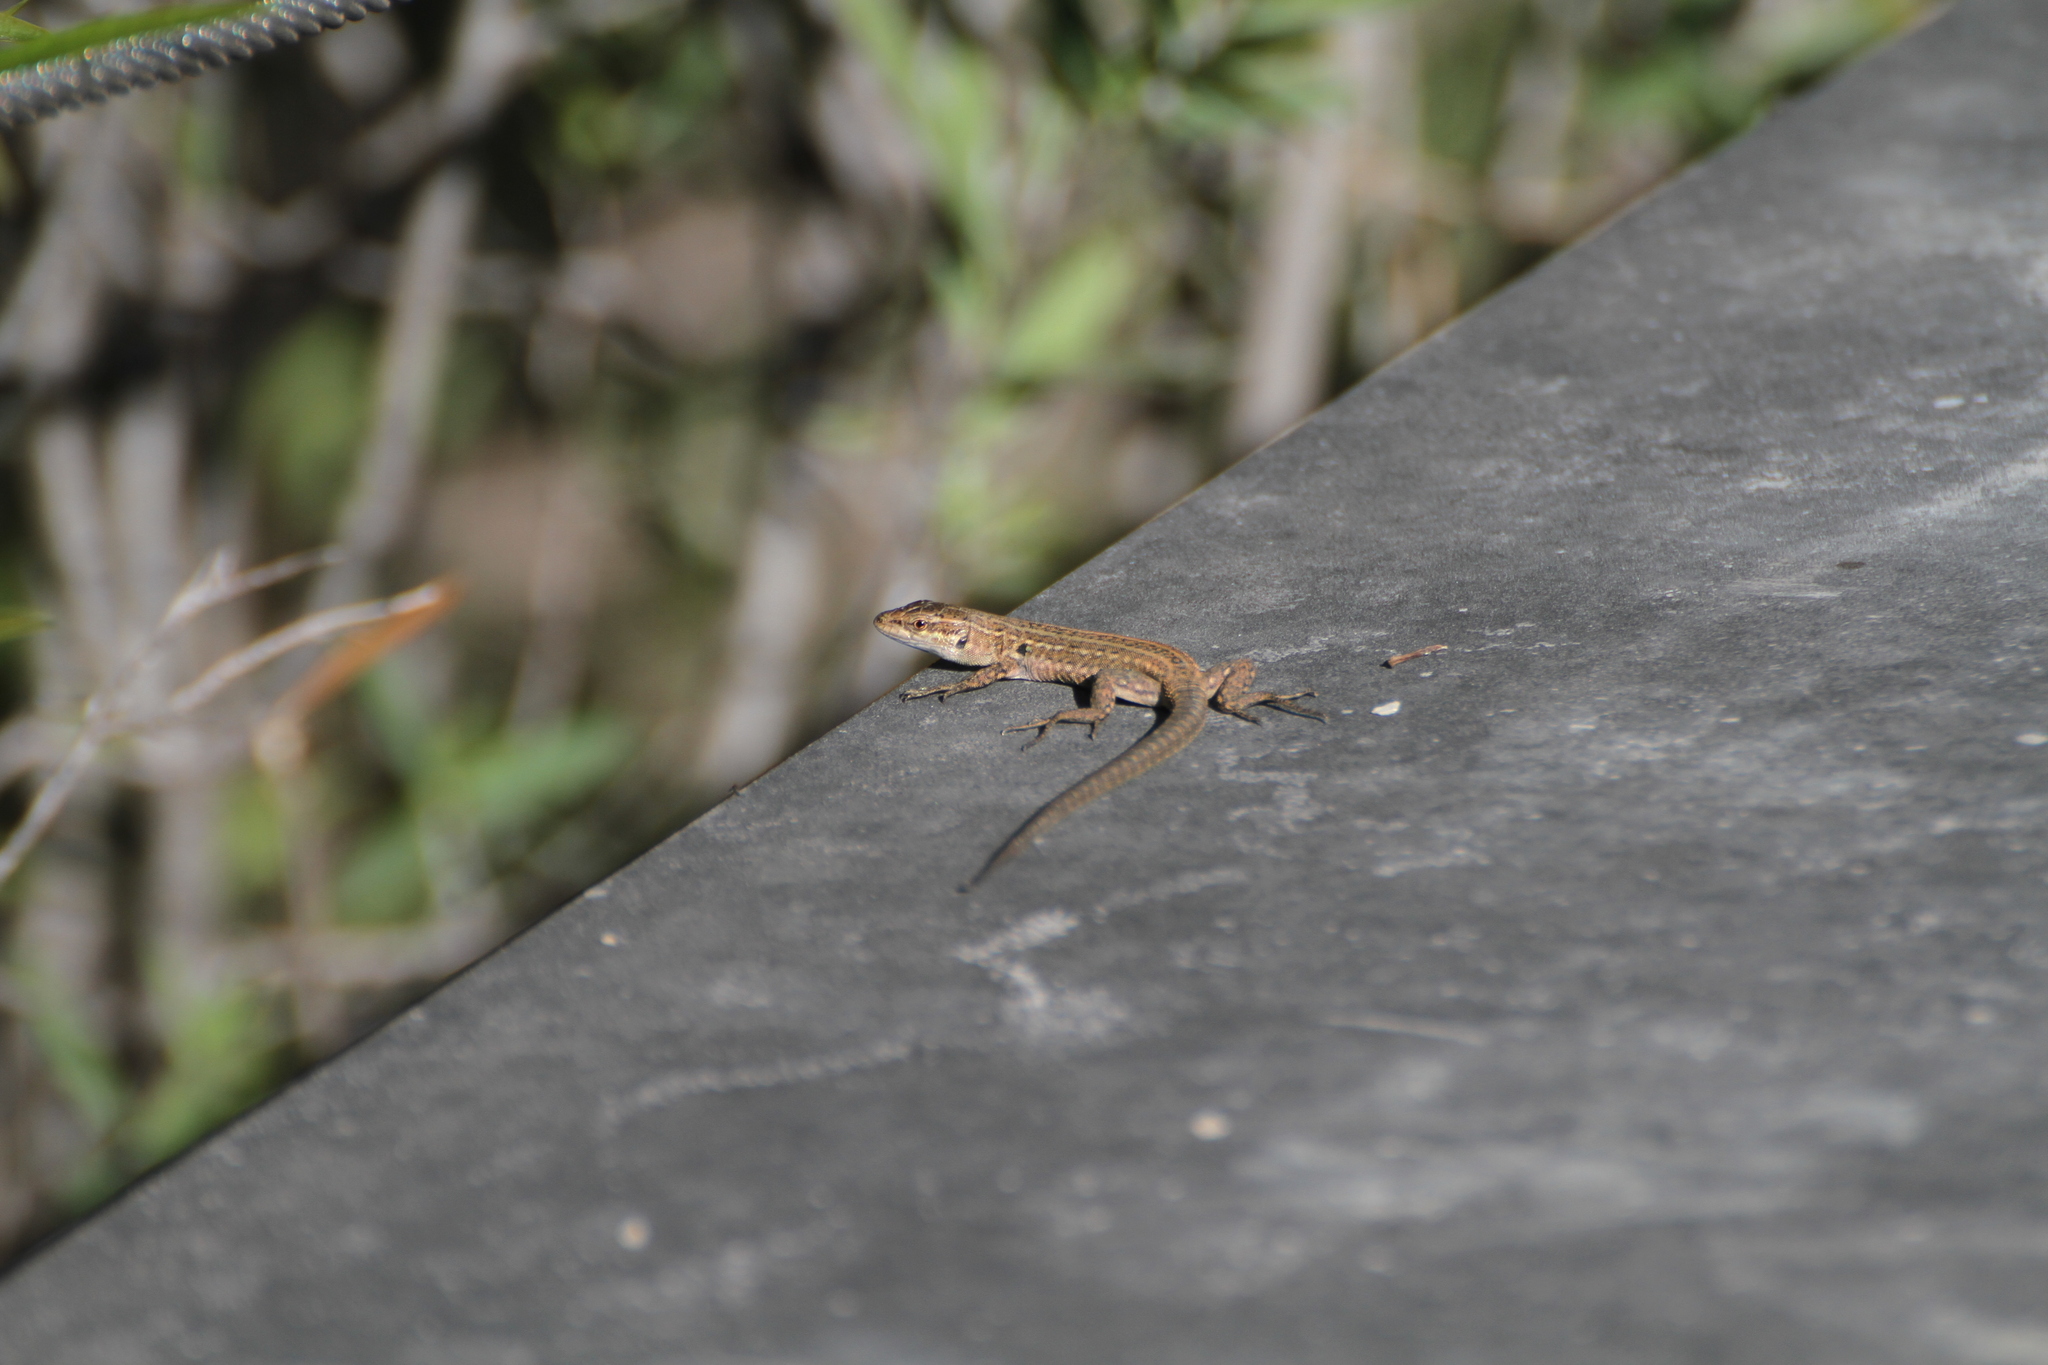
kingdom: Animalia
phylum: Chordata
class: Squamata
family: Lacertidae
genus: Podarcis
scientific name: Podarcis siculus
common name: Italian wall lizard
